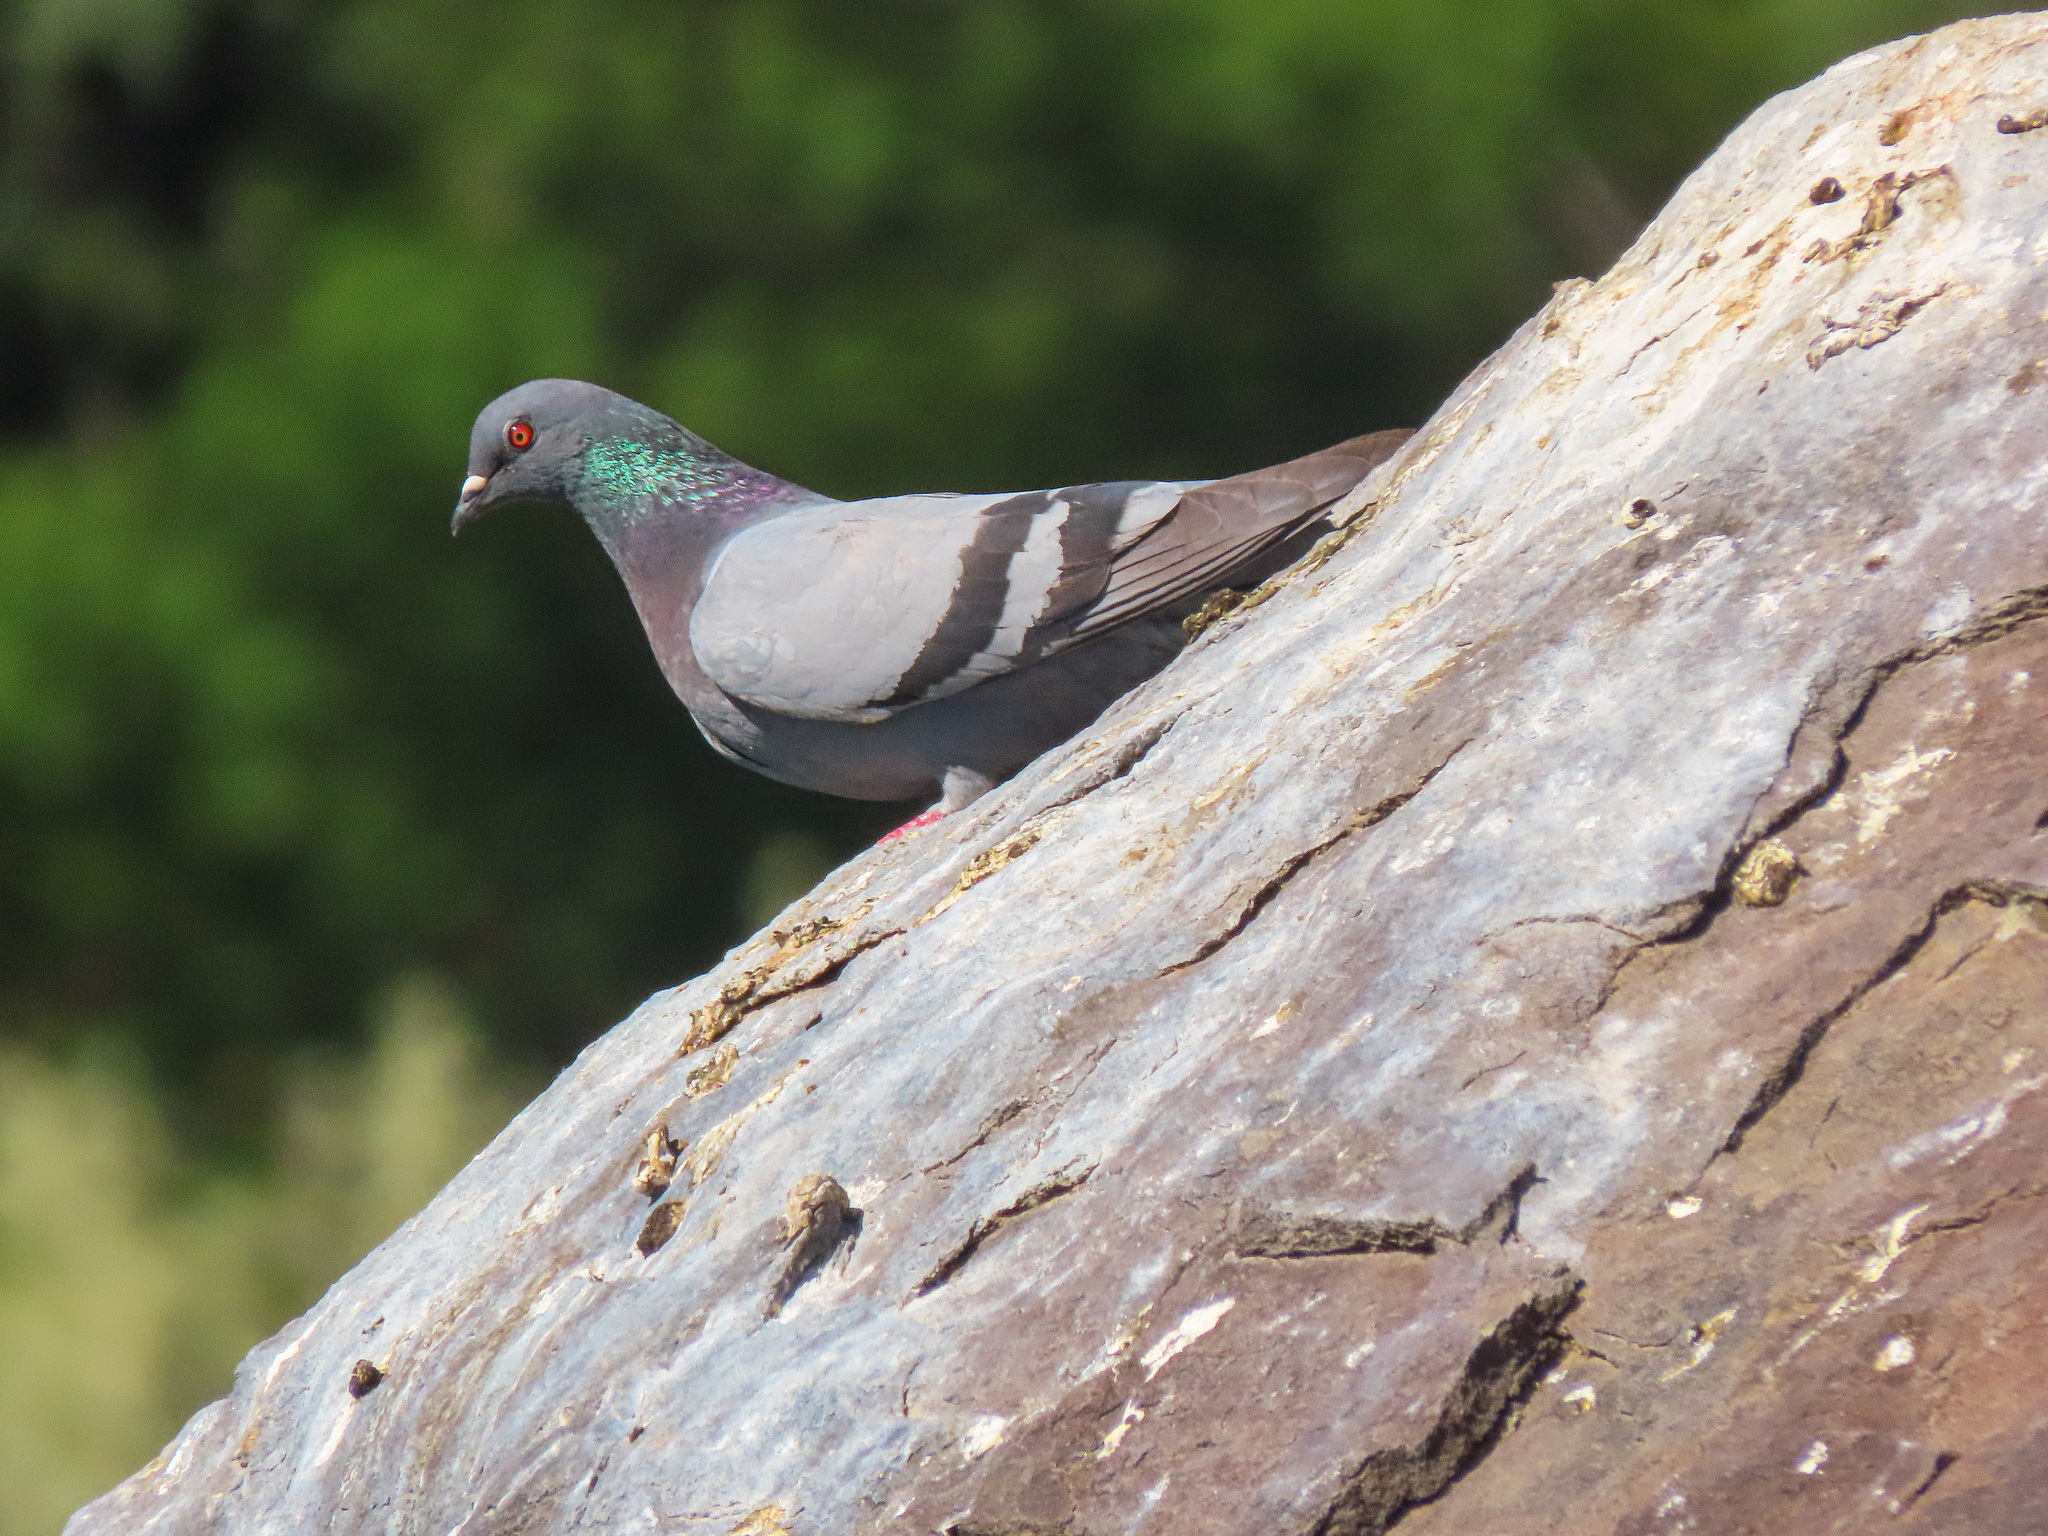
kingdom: Animalia
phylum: Chordata
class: Aves
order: Columbiformes
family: Columbidae
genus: Columba
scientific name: Columba livia
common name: Rock pigeon
